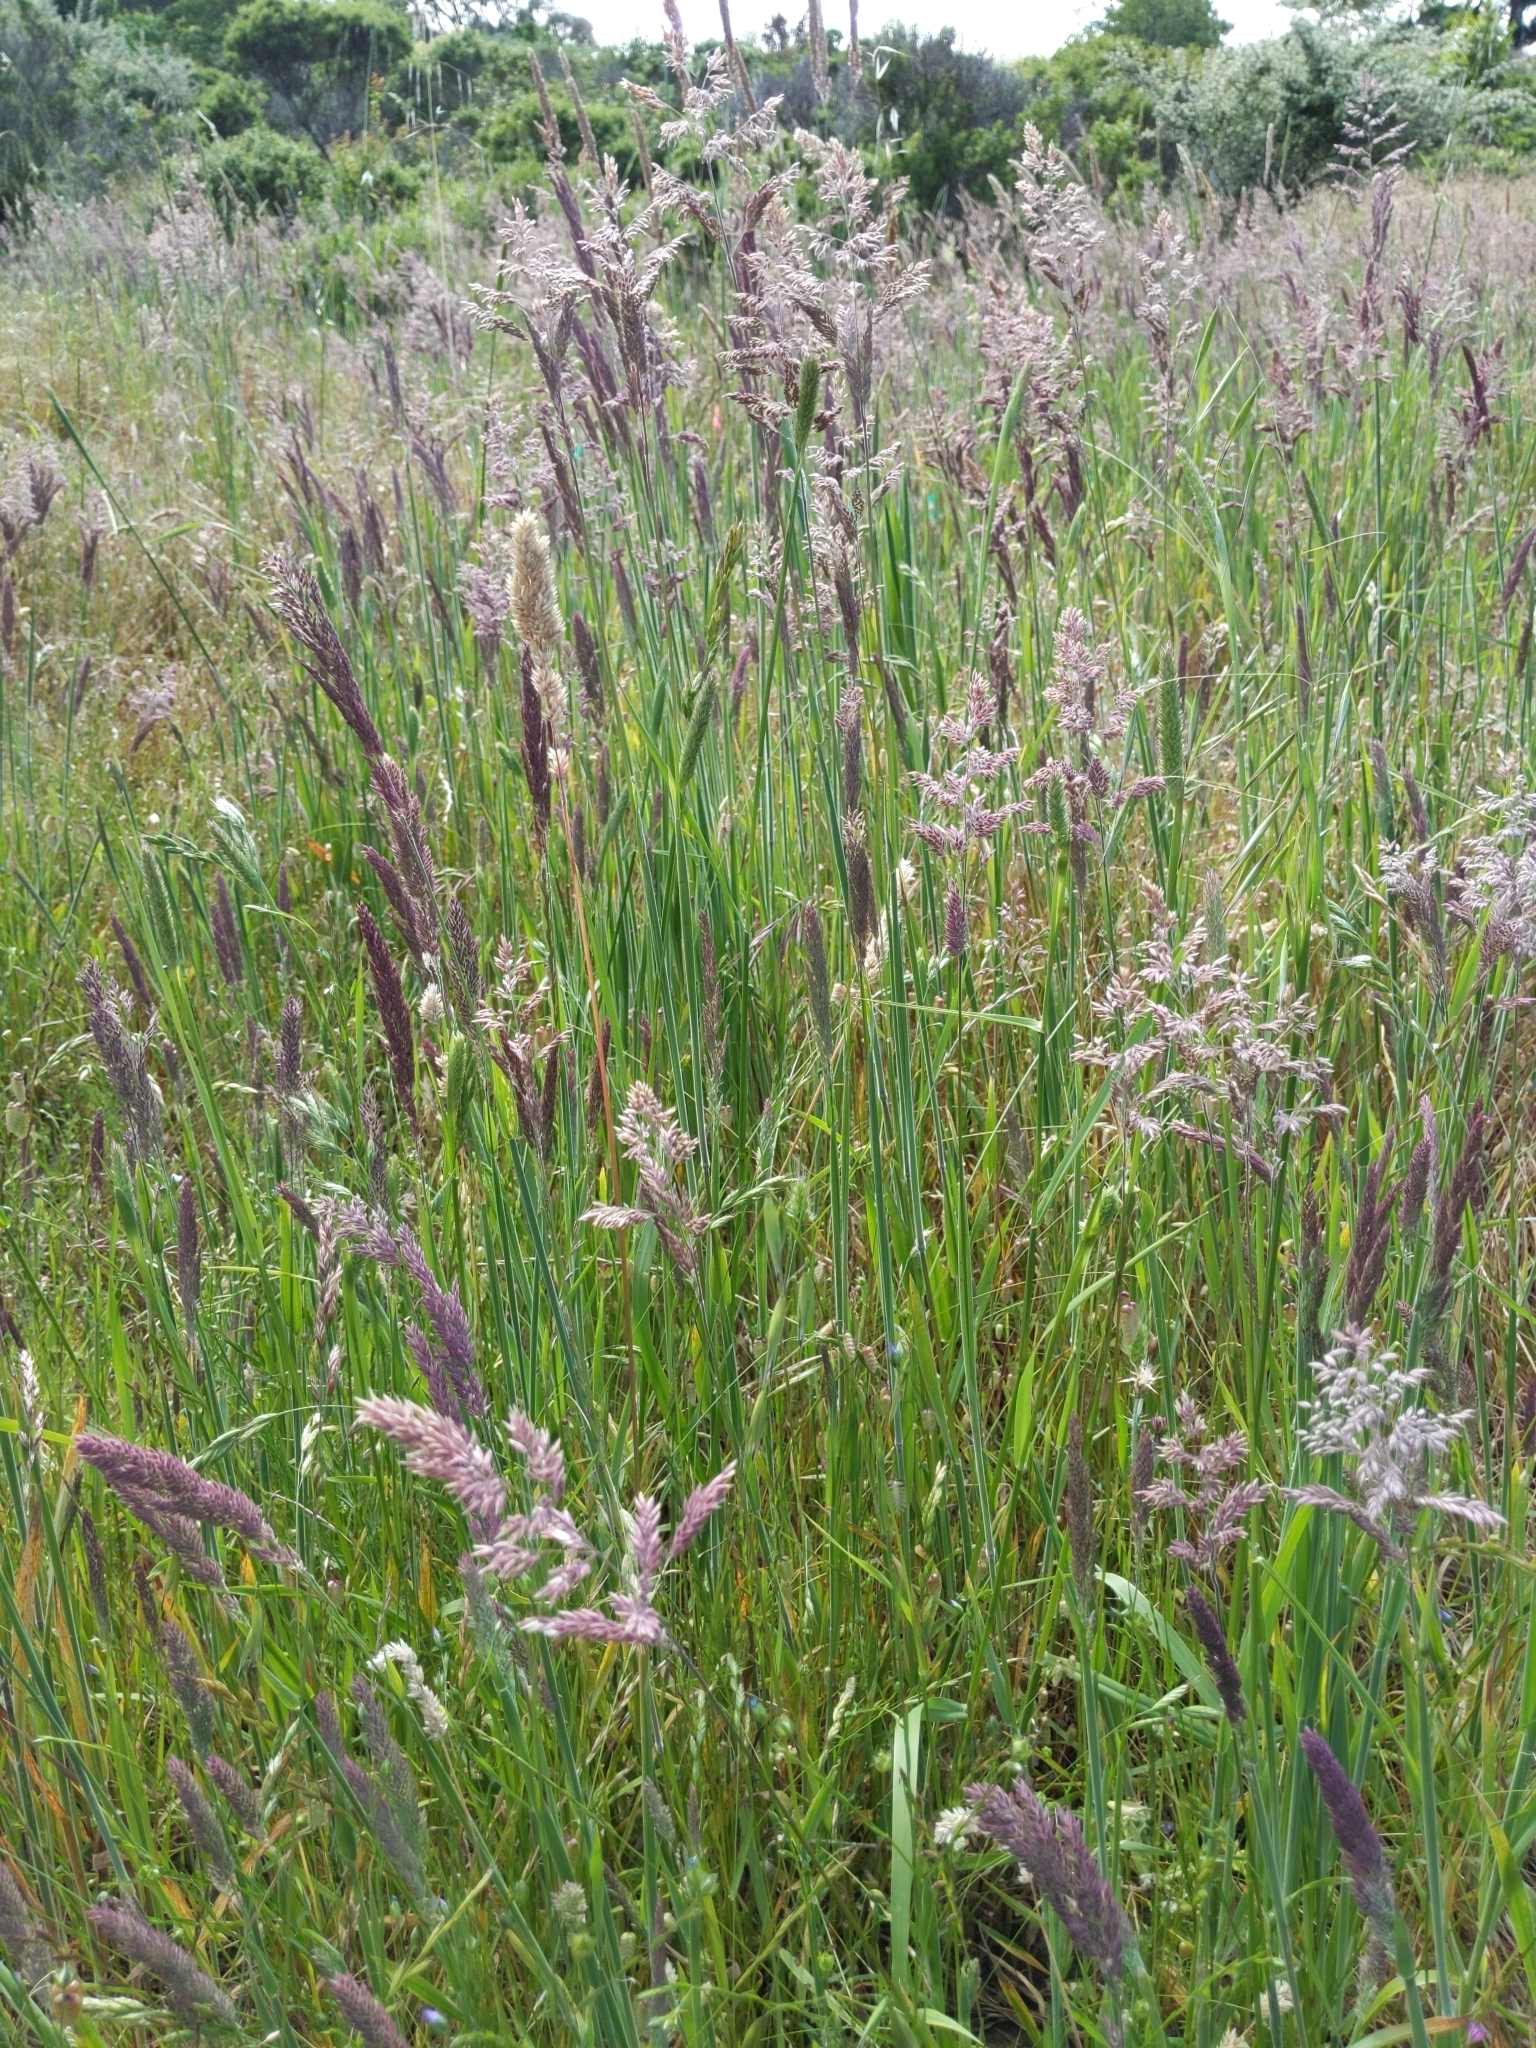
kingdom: Plantae
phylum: Tracheophyta
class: Liliopsida
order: Poales
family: Poaceae
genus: Holcus
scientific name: Holcus lanatus
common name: Yorkshire-fog
